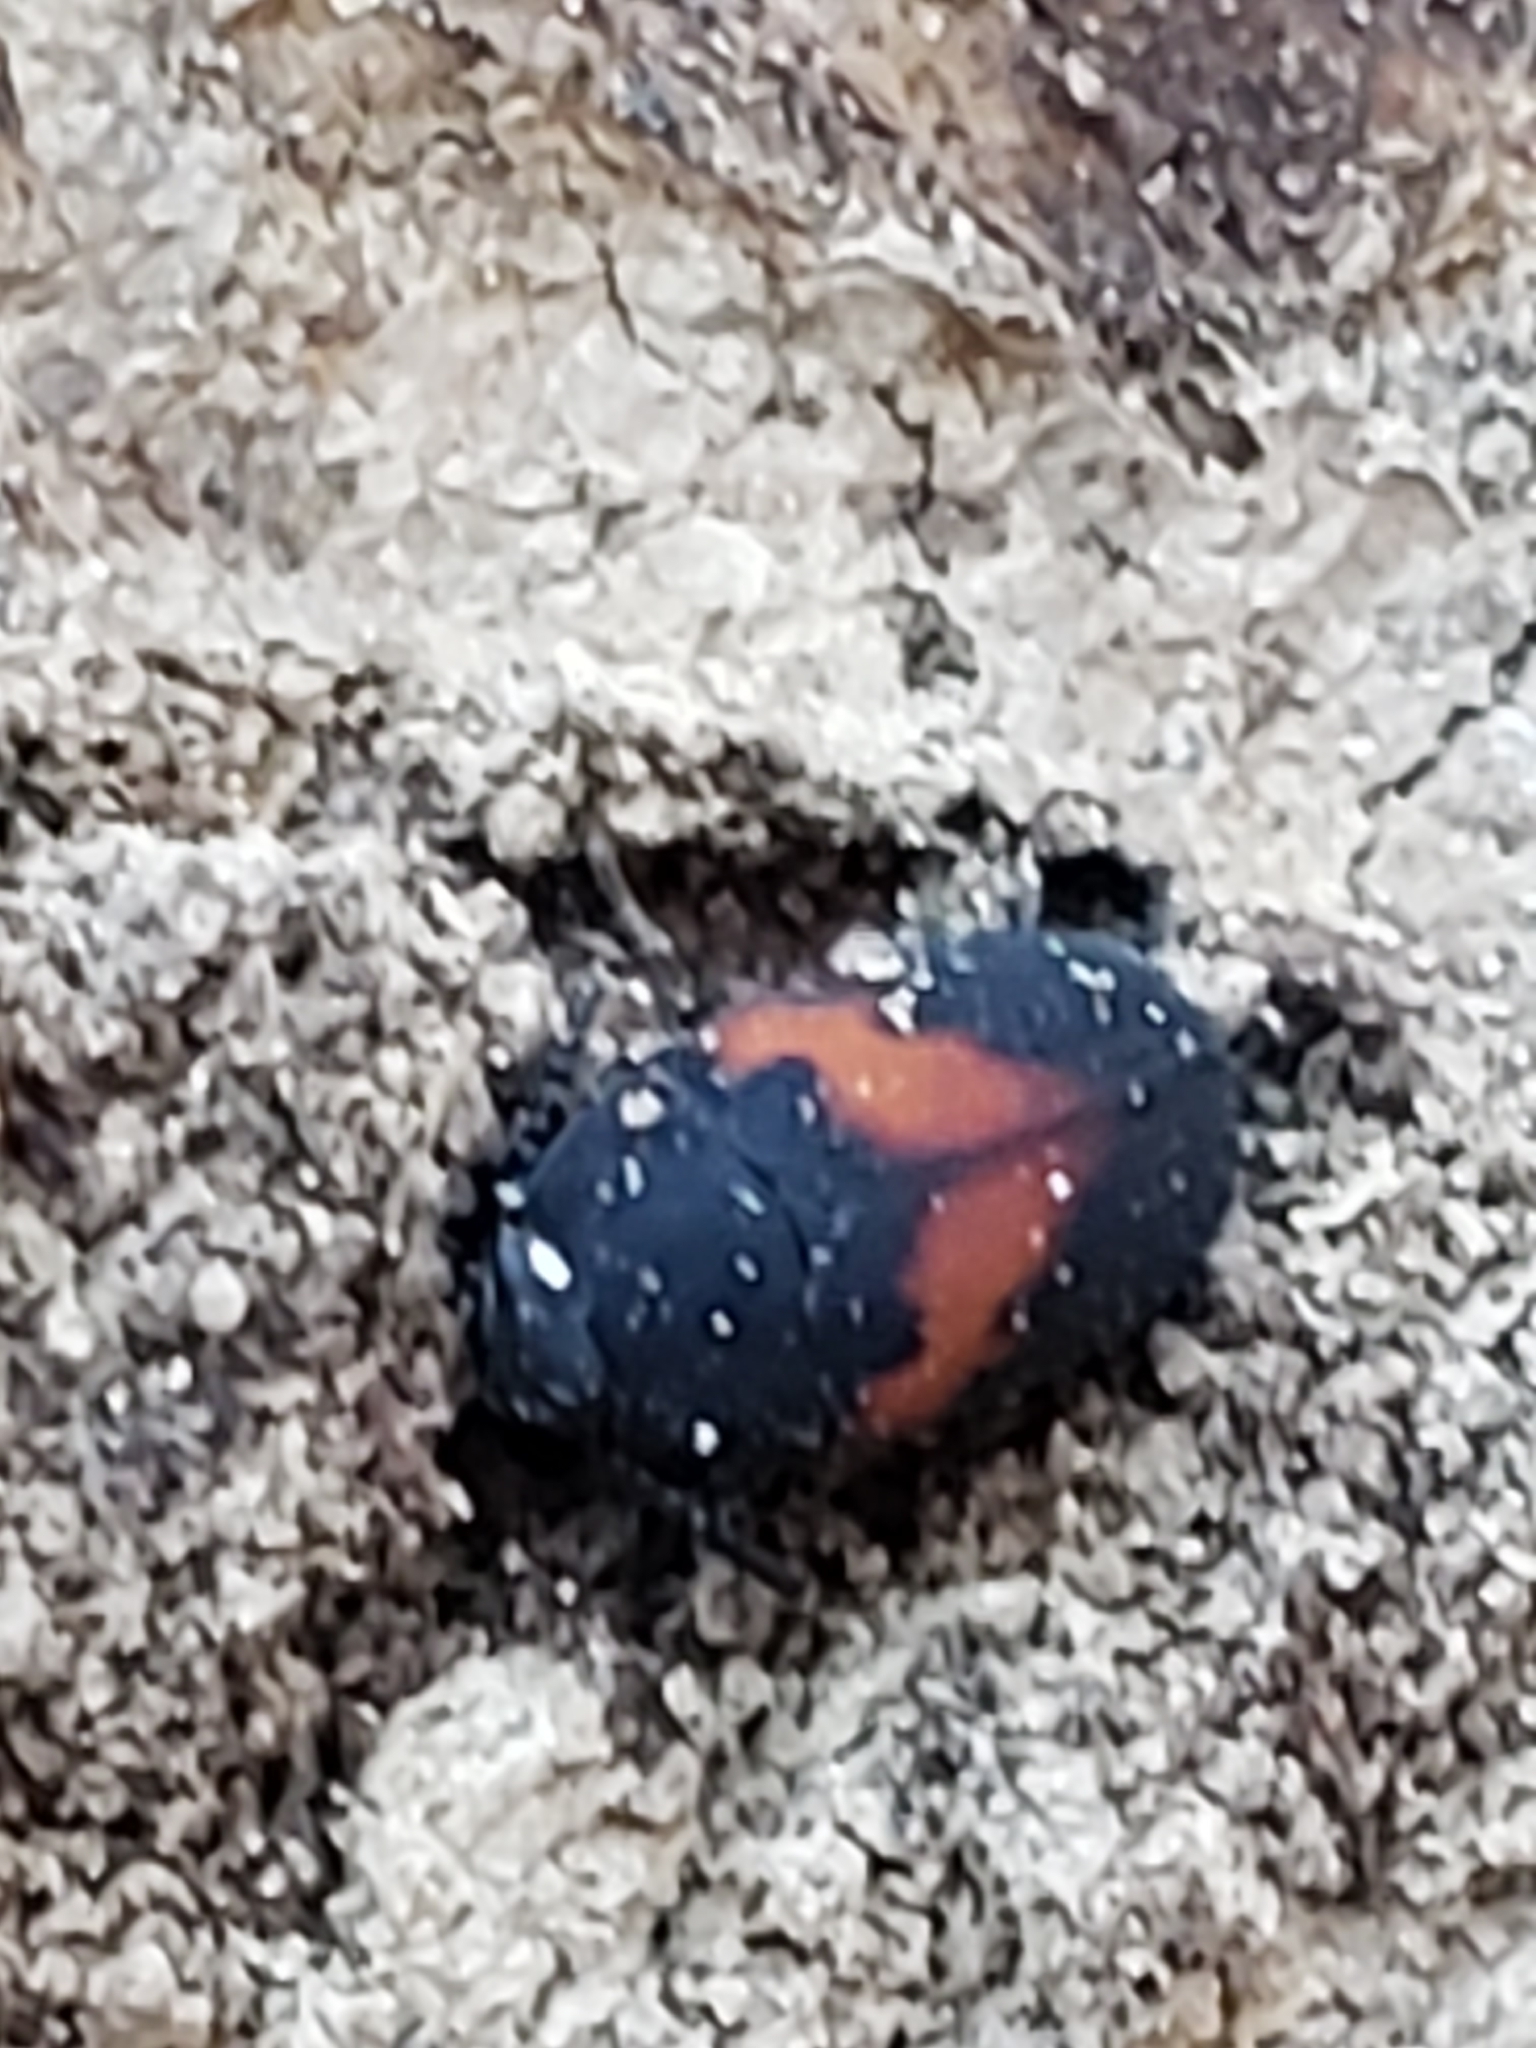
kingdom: Animalia
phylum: Arthropoda
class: Insecta
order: Coleoptera
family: Tenebrionidae
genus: Platydema
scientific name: Platydema elliptica
